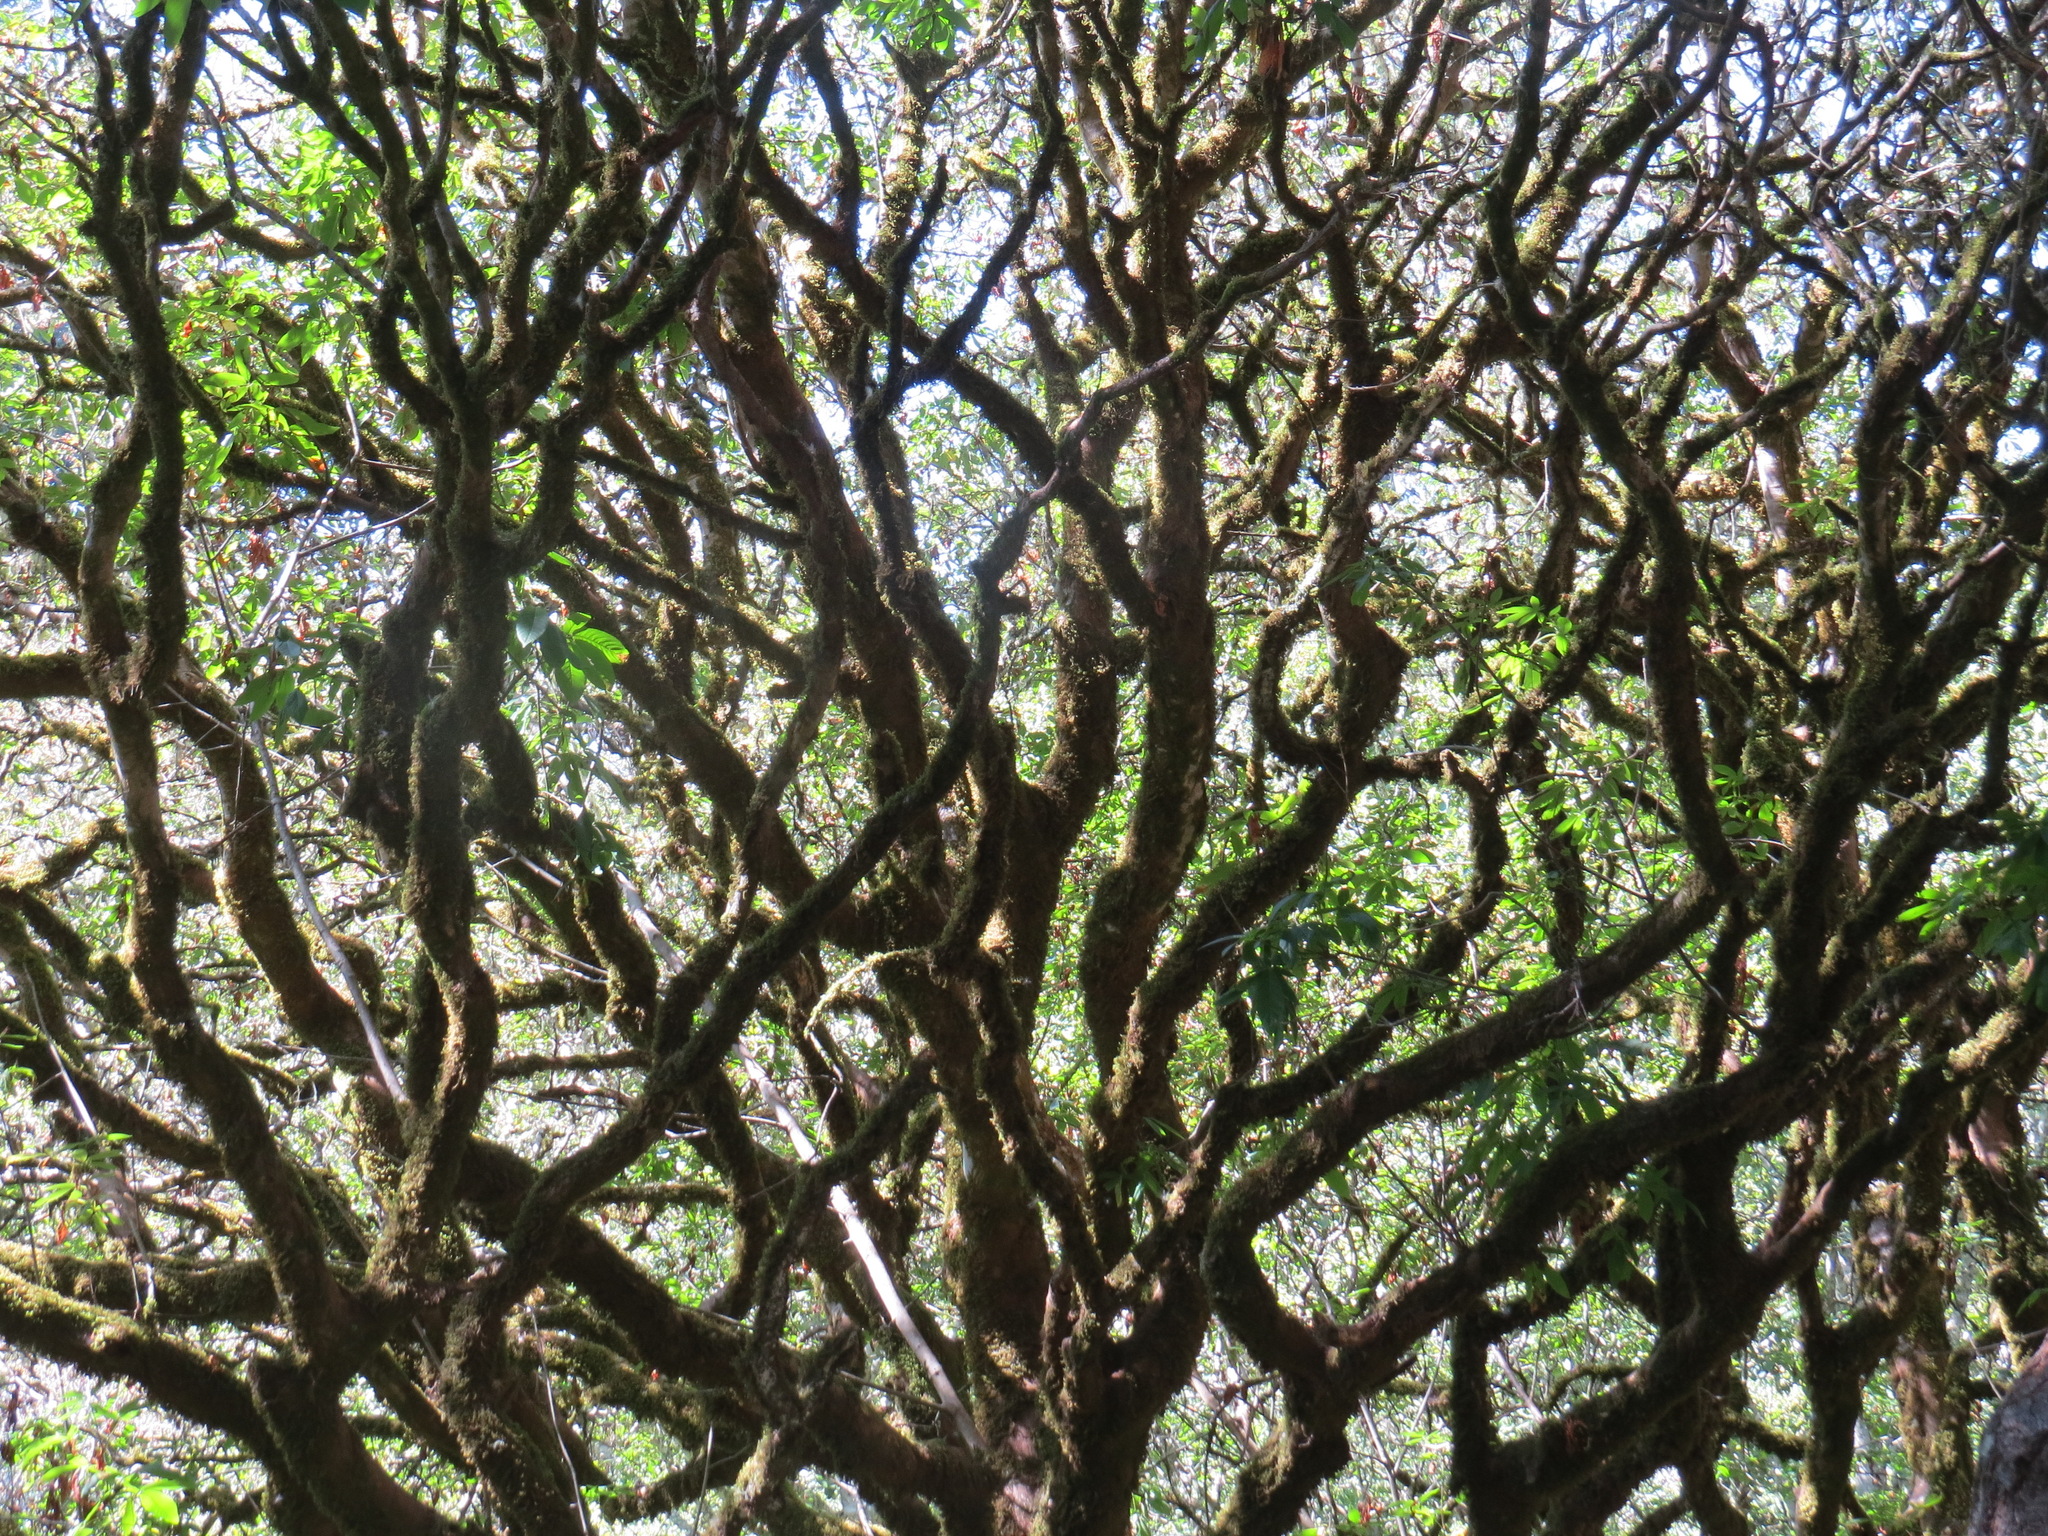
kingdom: Plantae
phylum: Tracheophyta
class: Magnoliopsida
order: Sapindales
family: Sapindaceae
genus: Aesculus
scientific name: Aesculus californica
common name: California buckeye
